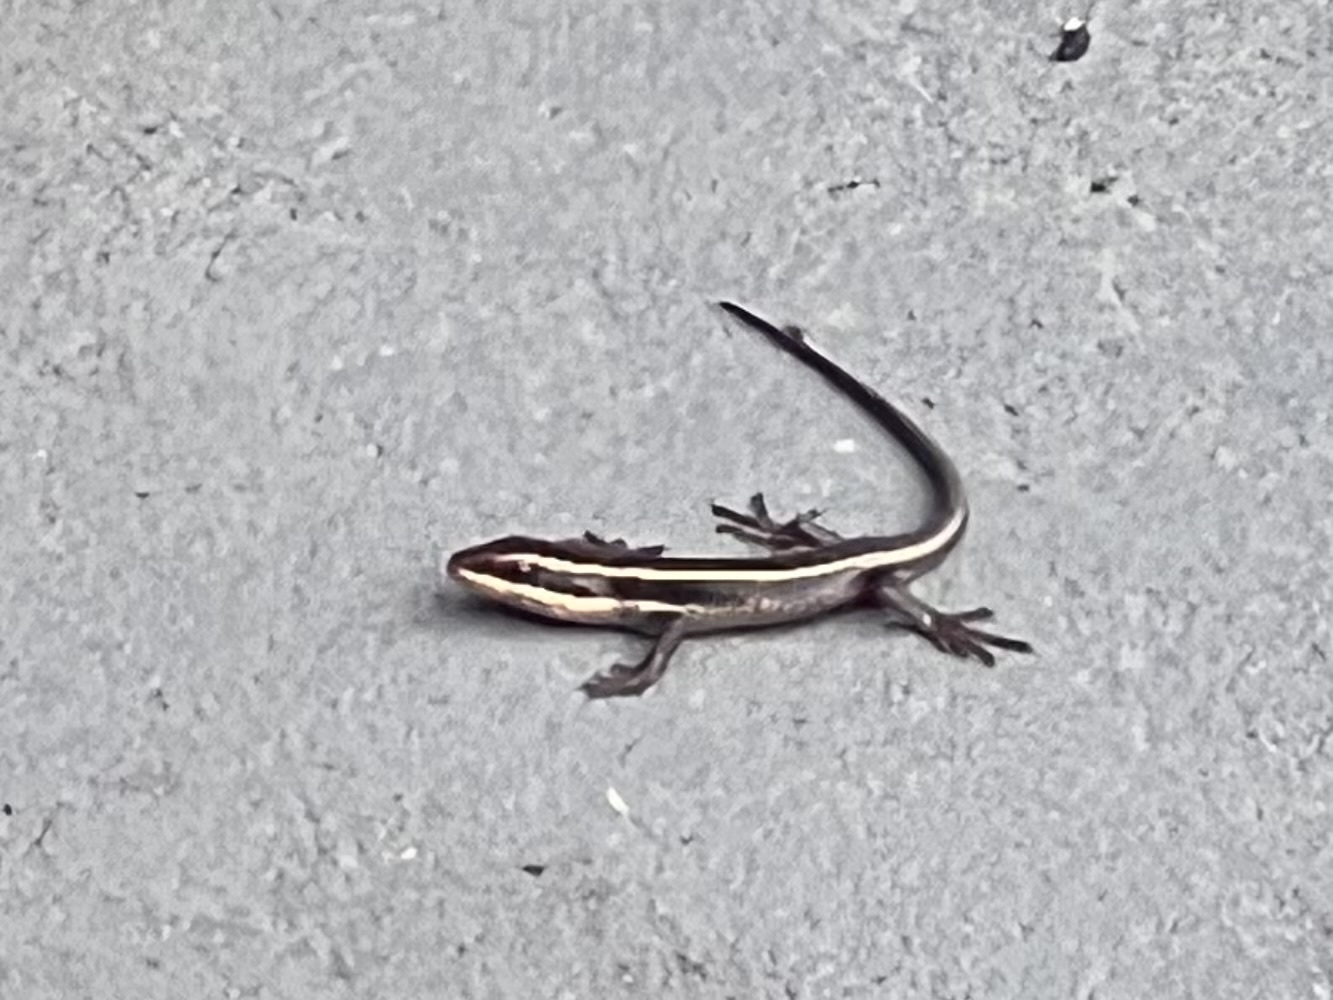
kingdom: Animalia
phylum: Chordata
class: Squamata
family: Scincidae
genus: Trachylepis
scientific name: Trachylepis striata
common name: African striped mabuya
